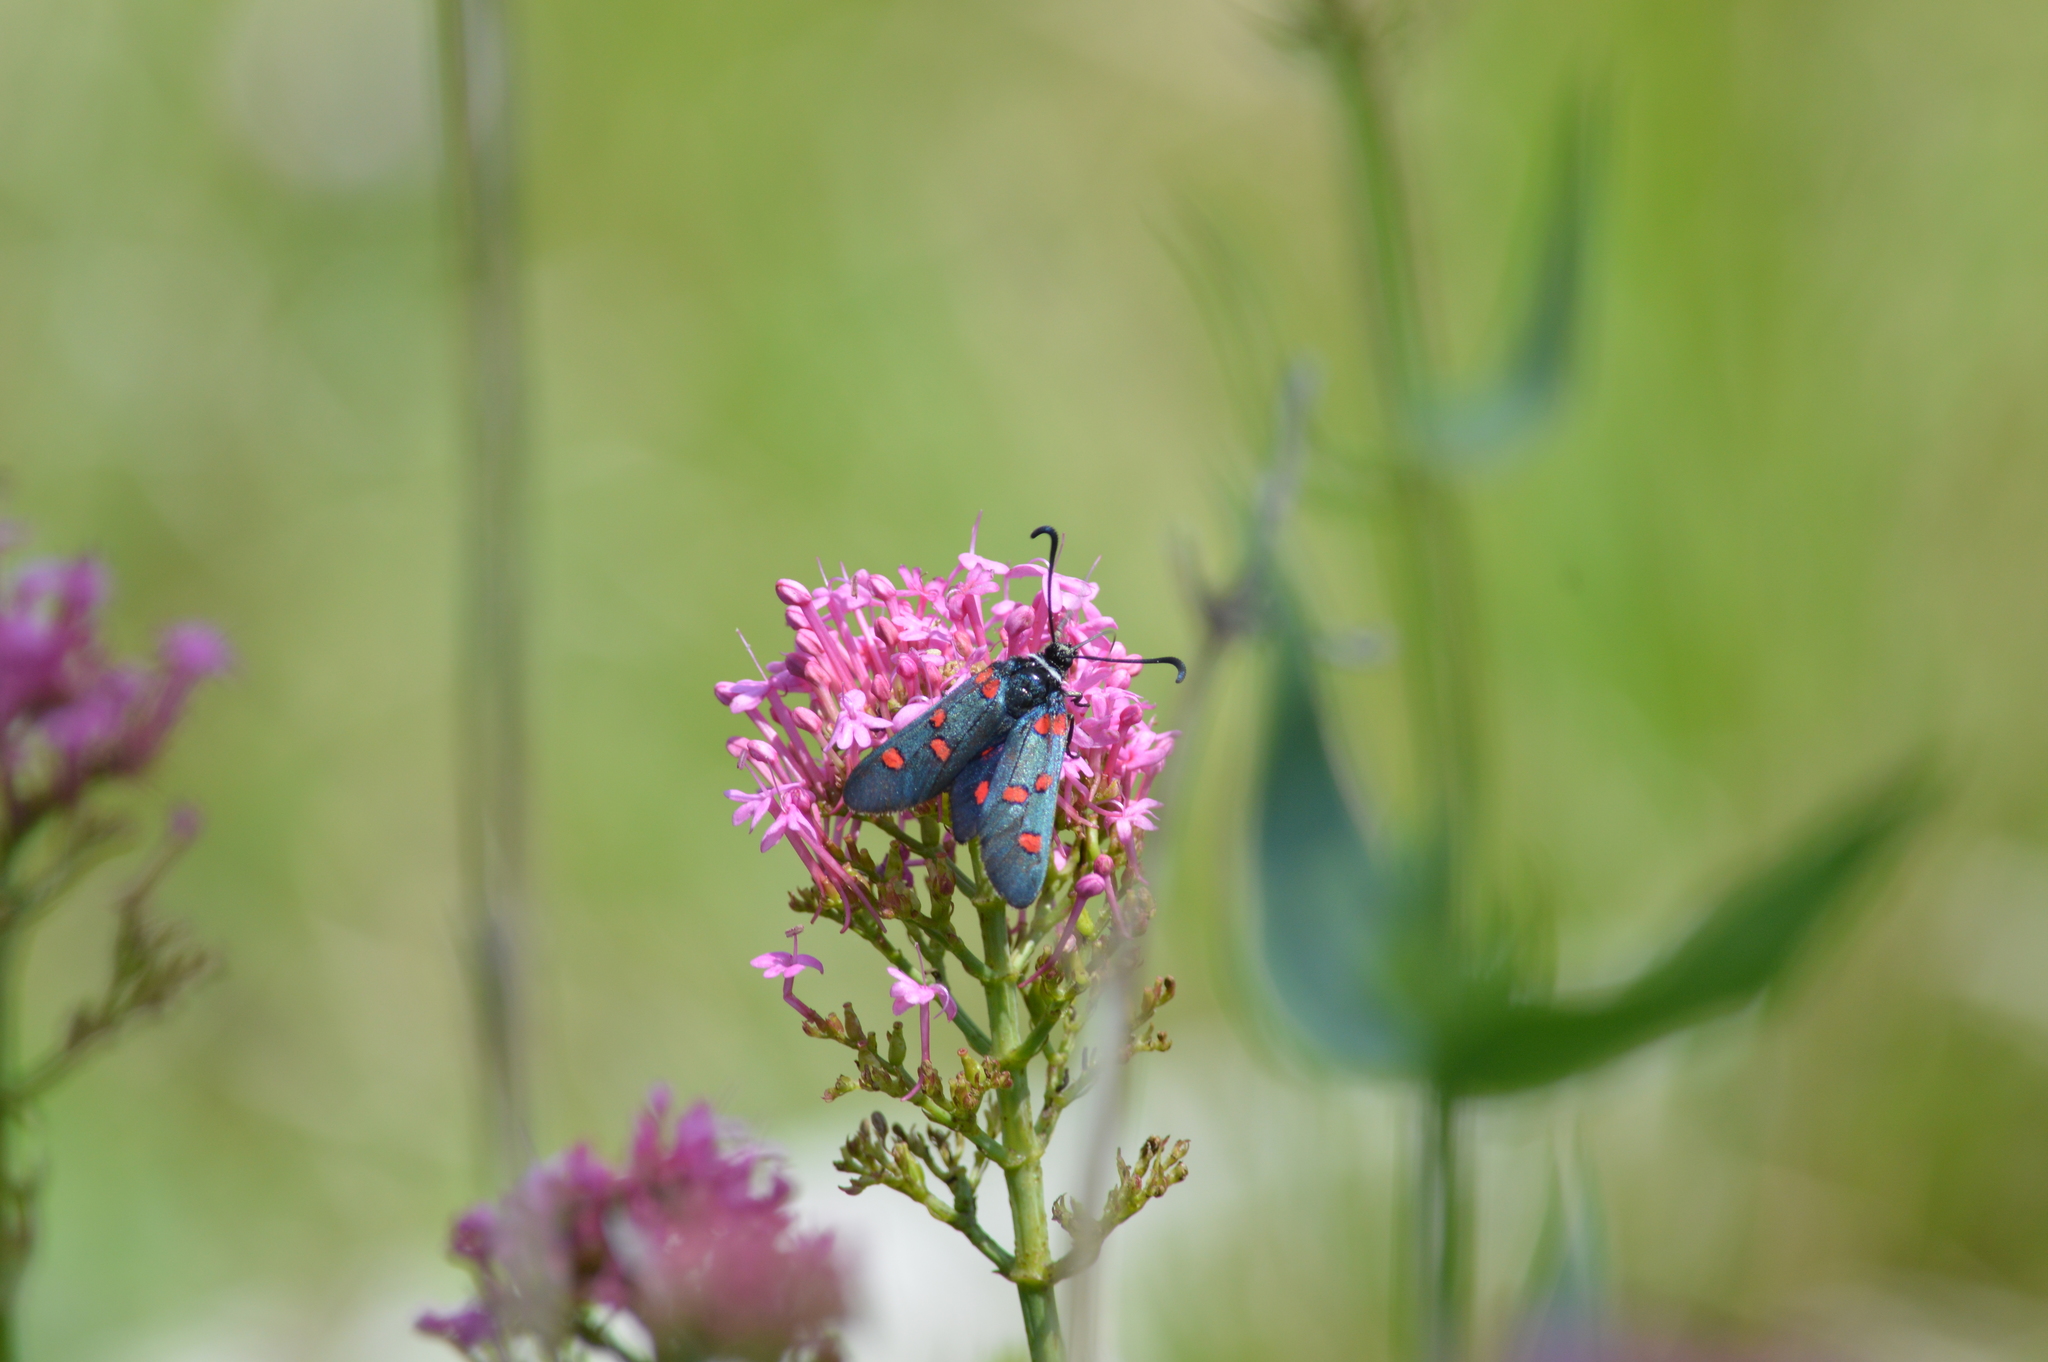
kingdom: Animalia
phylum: Arthropoda
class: Insecta
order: Lepidoptera
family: Zygaenidae
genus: Zygaena
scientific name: Zygaena lavandulae
